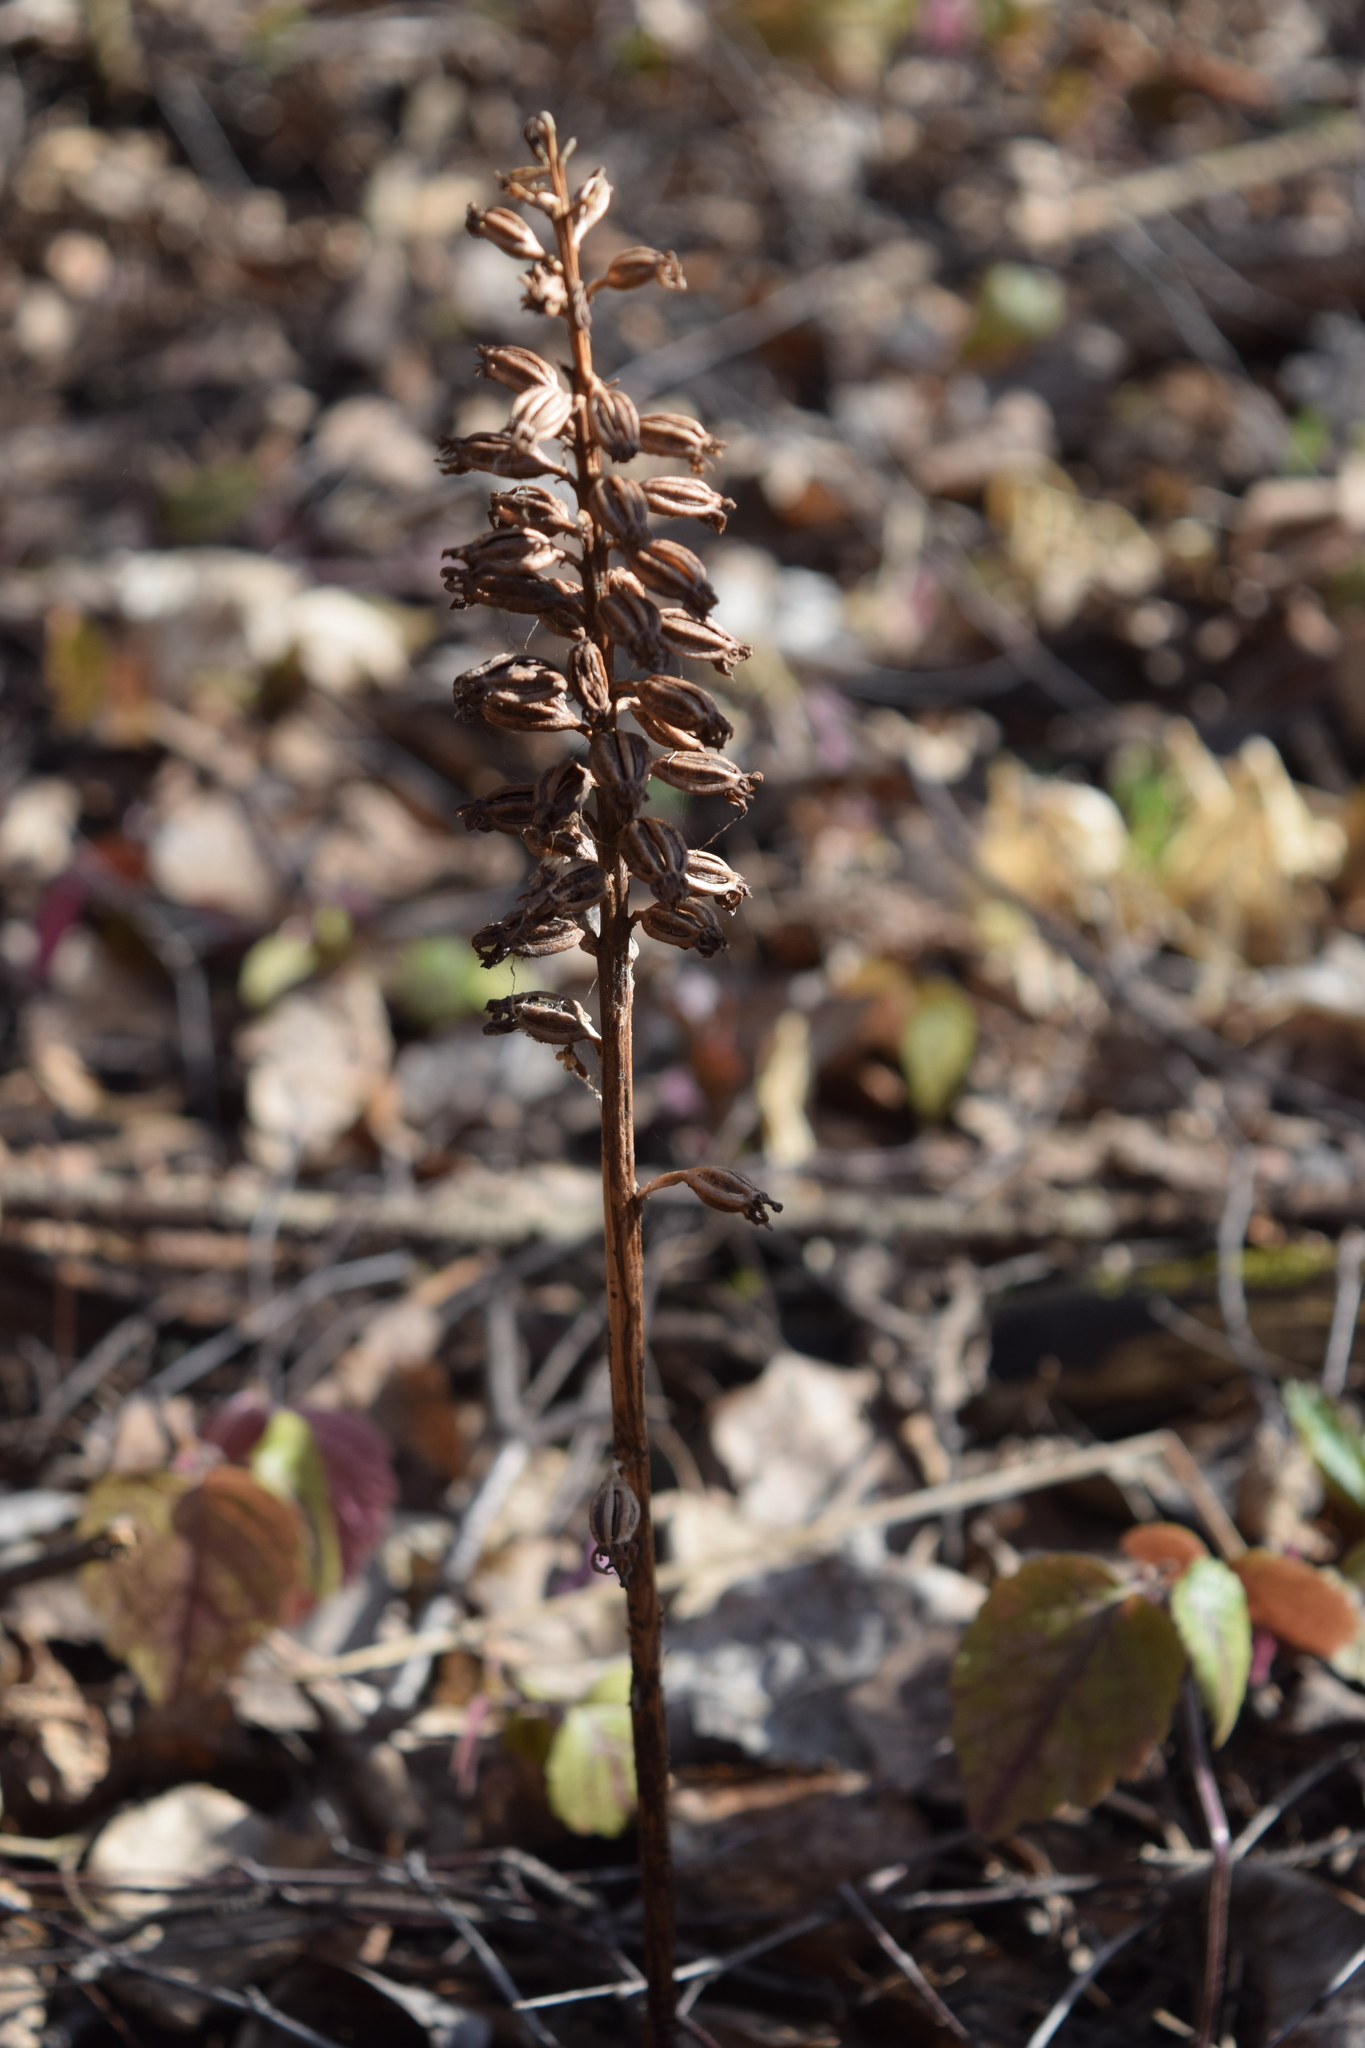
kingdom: Plantae
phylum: Tracheophyta
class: Liliopsida
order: Asparagales
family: Orchidaceae
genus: Neottia
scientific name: Neottia nidus-avis
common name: Bird's-nest orchid
